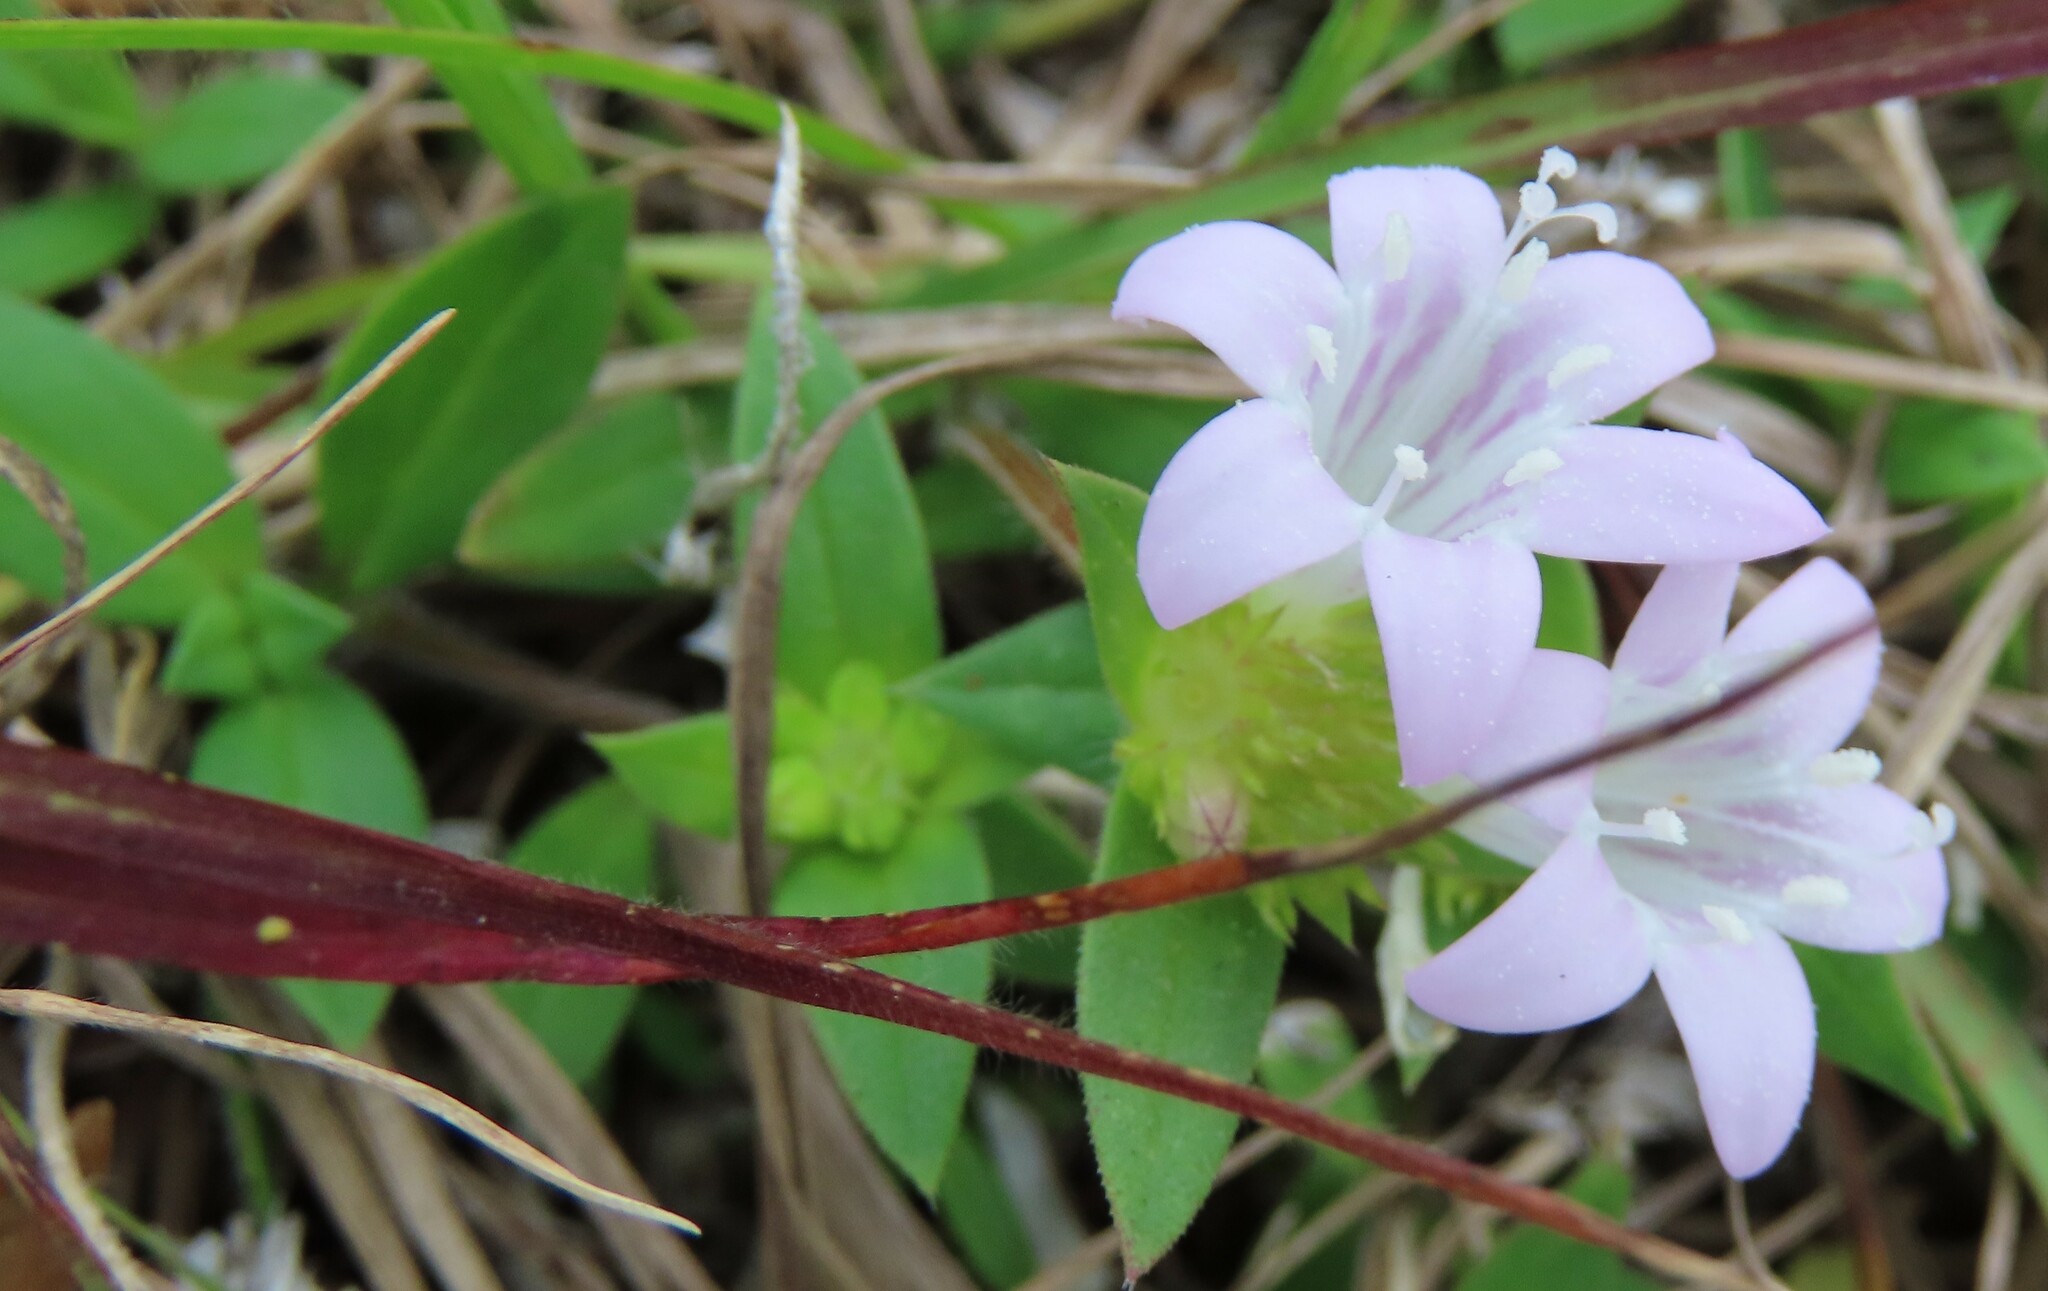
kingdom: Plantae
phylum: Tracheophyta
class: Magnoliopsida
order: Gentianales
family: Rubiaceae
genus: Richardia
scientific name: Richardia grandiflora
